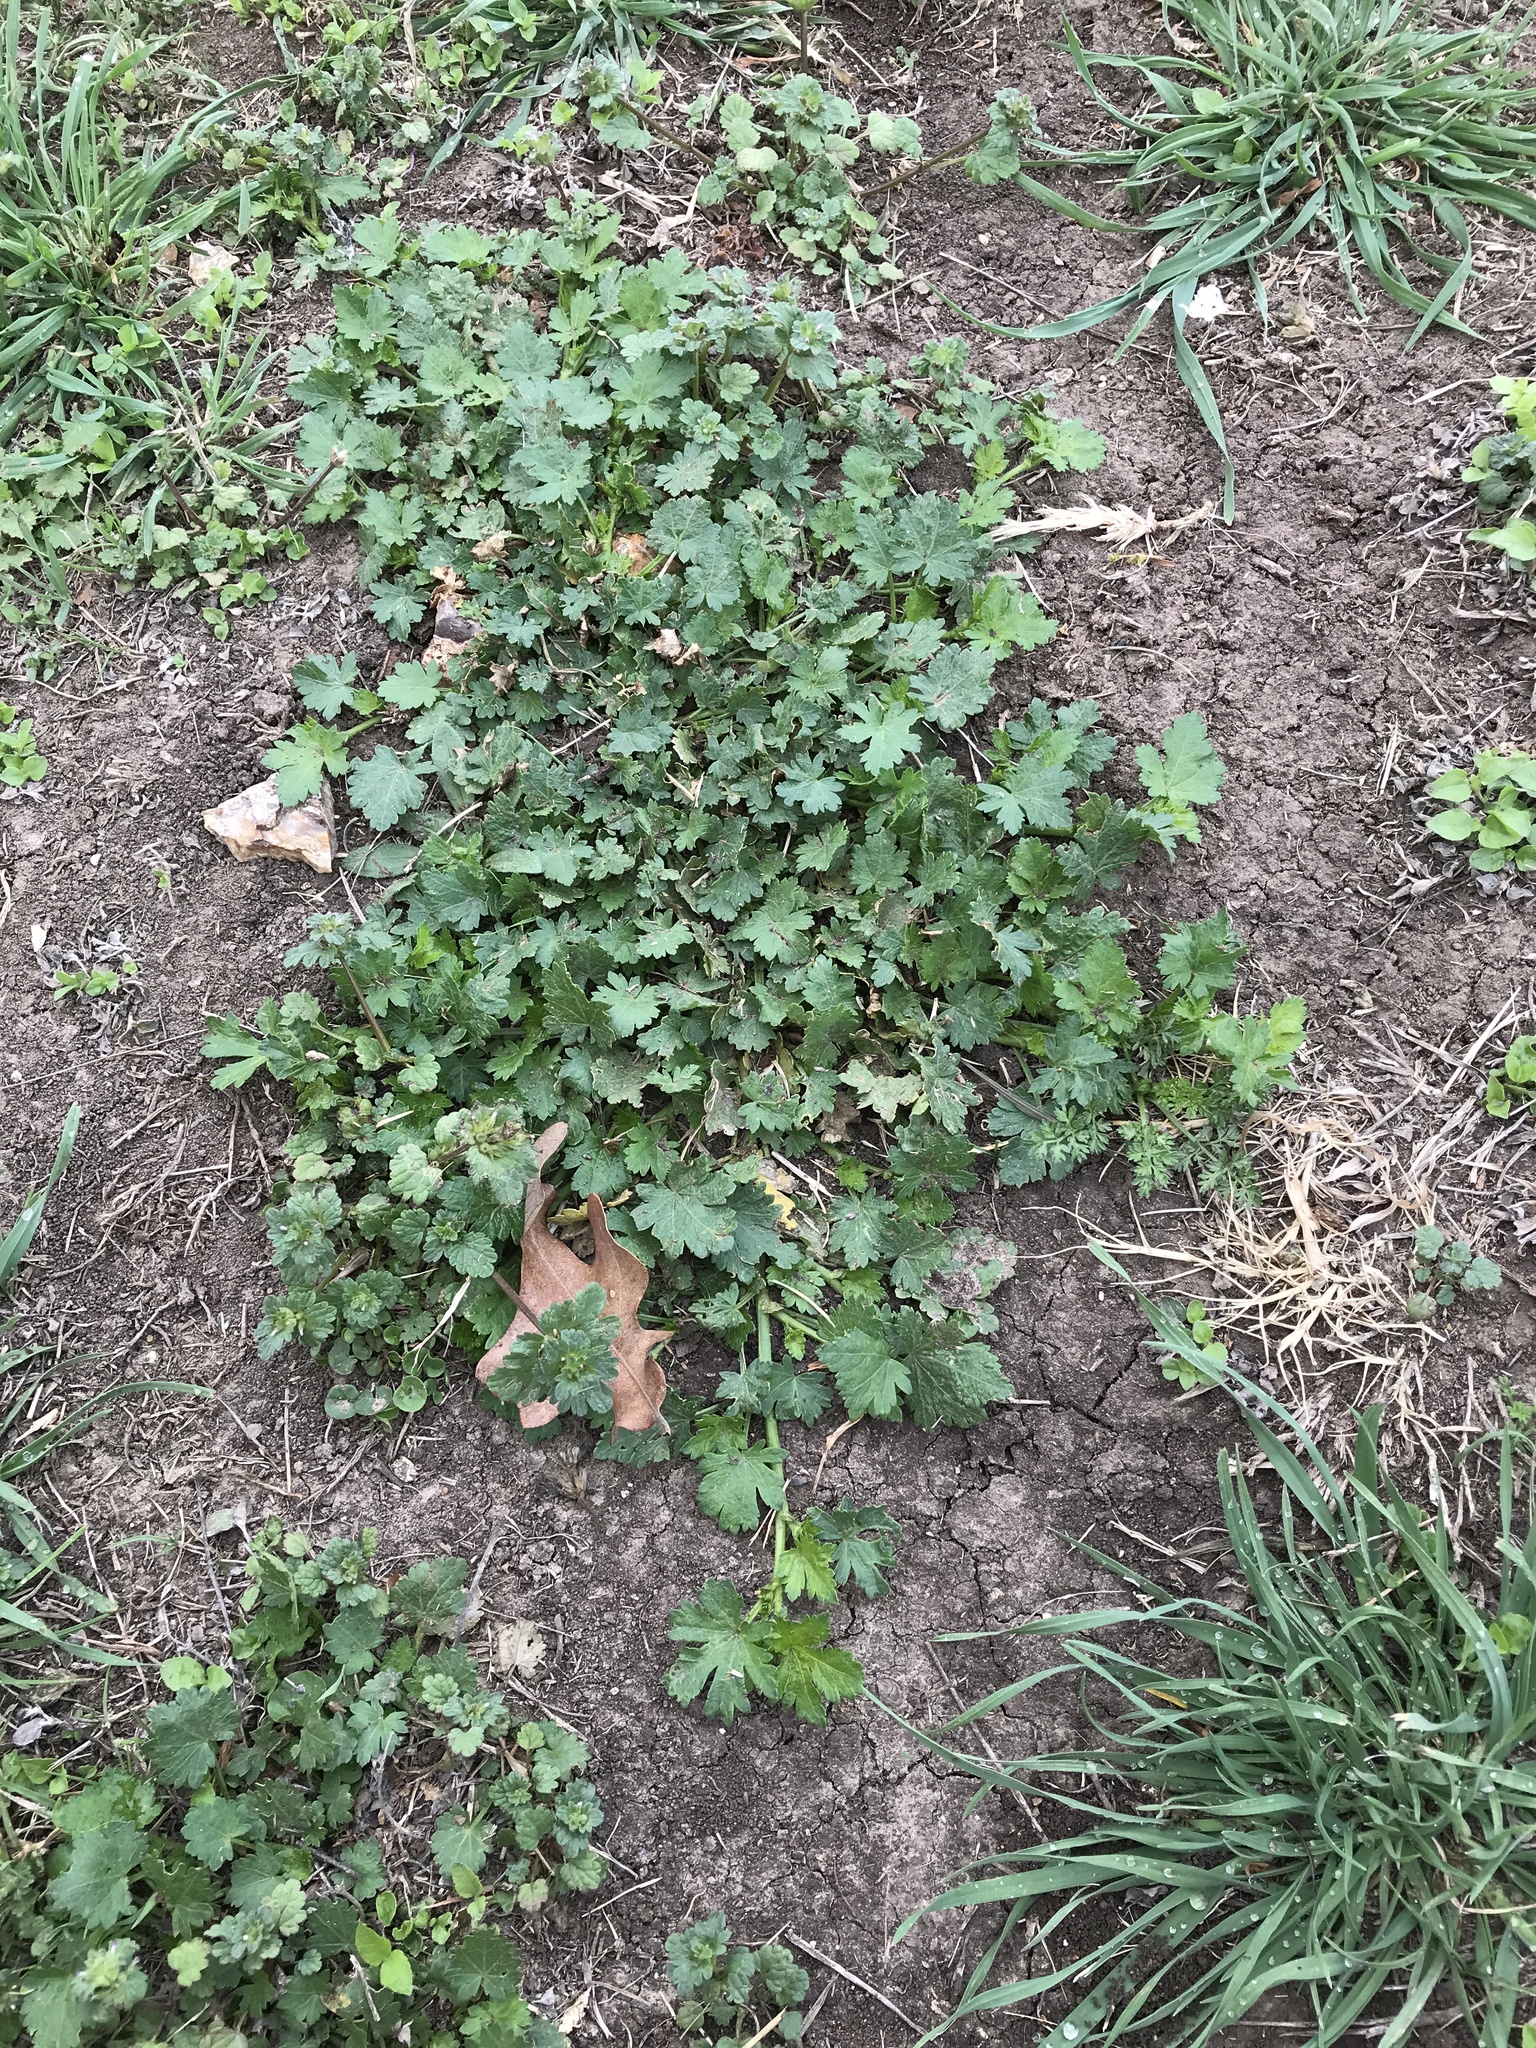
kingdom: Plantae
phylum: Tracheophyta
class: Magnoliopsida
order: Malvales
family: Malvaceae
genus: Modiola
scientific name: Modiola caroliniana
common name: Carolina bristlemallow
